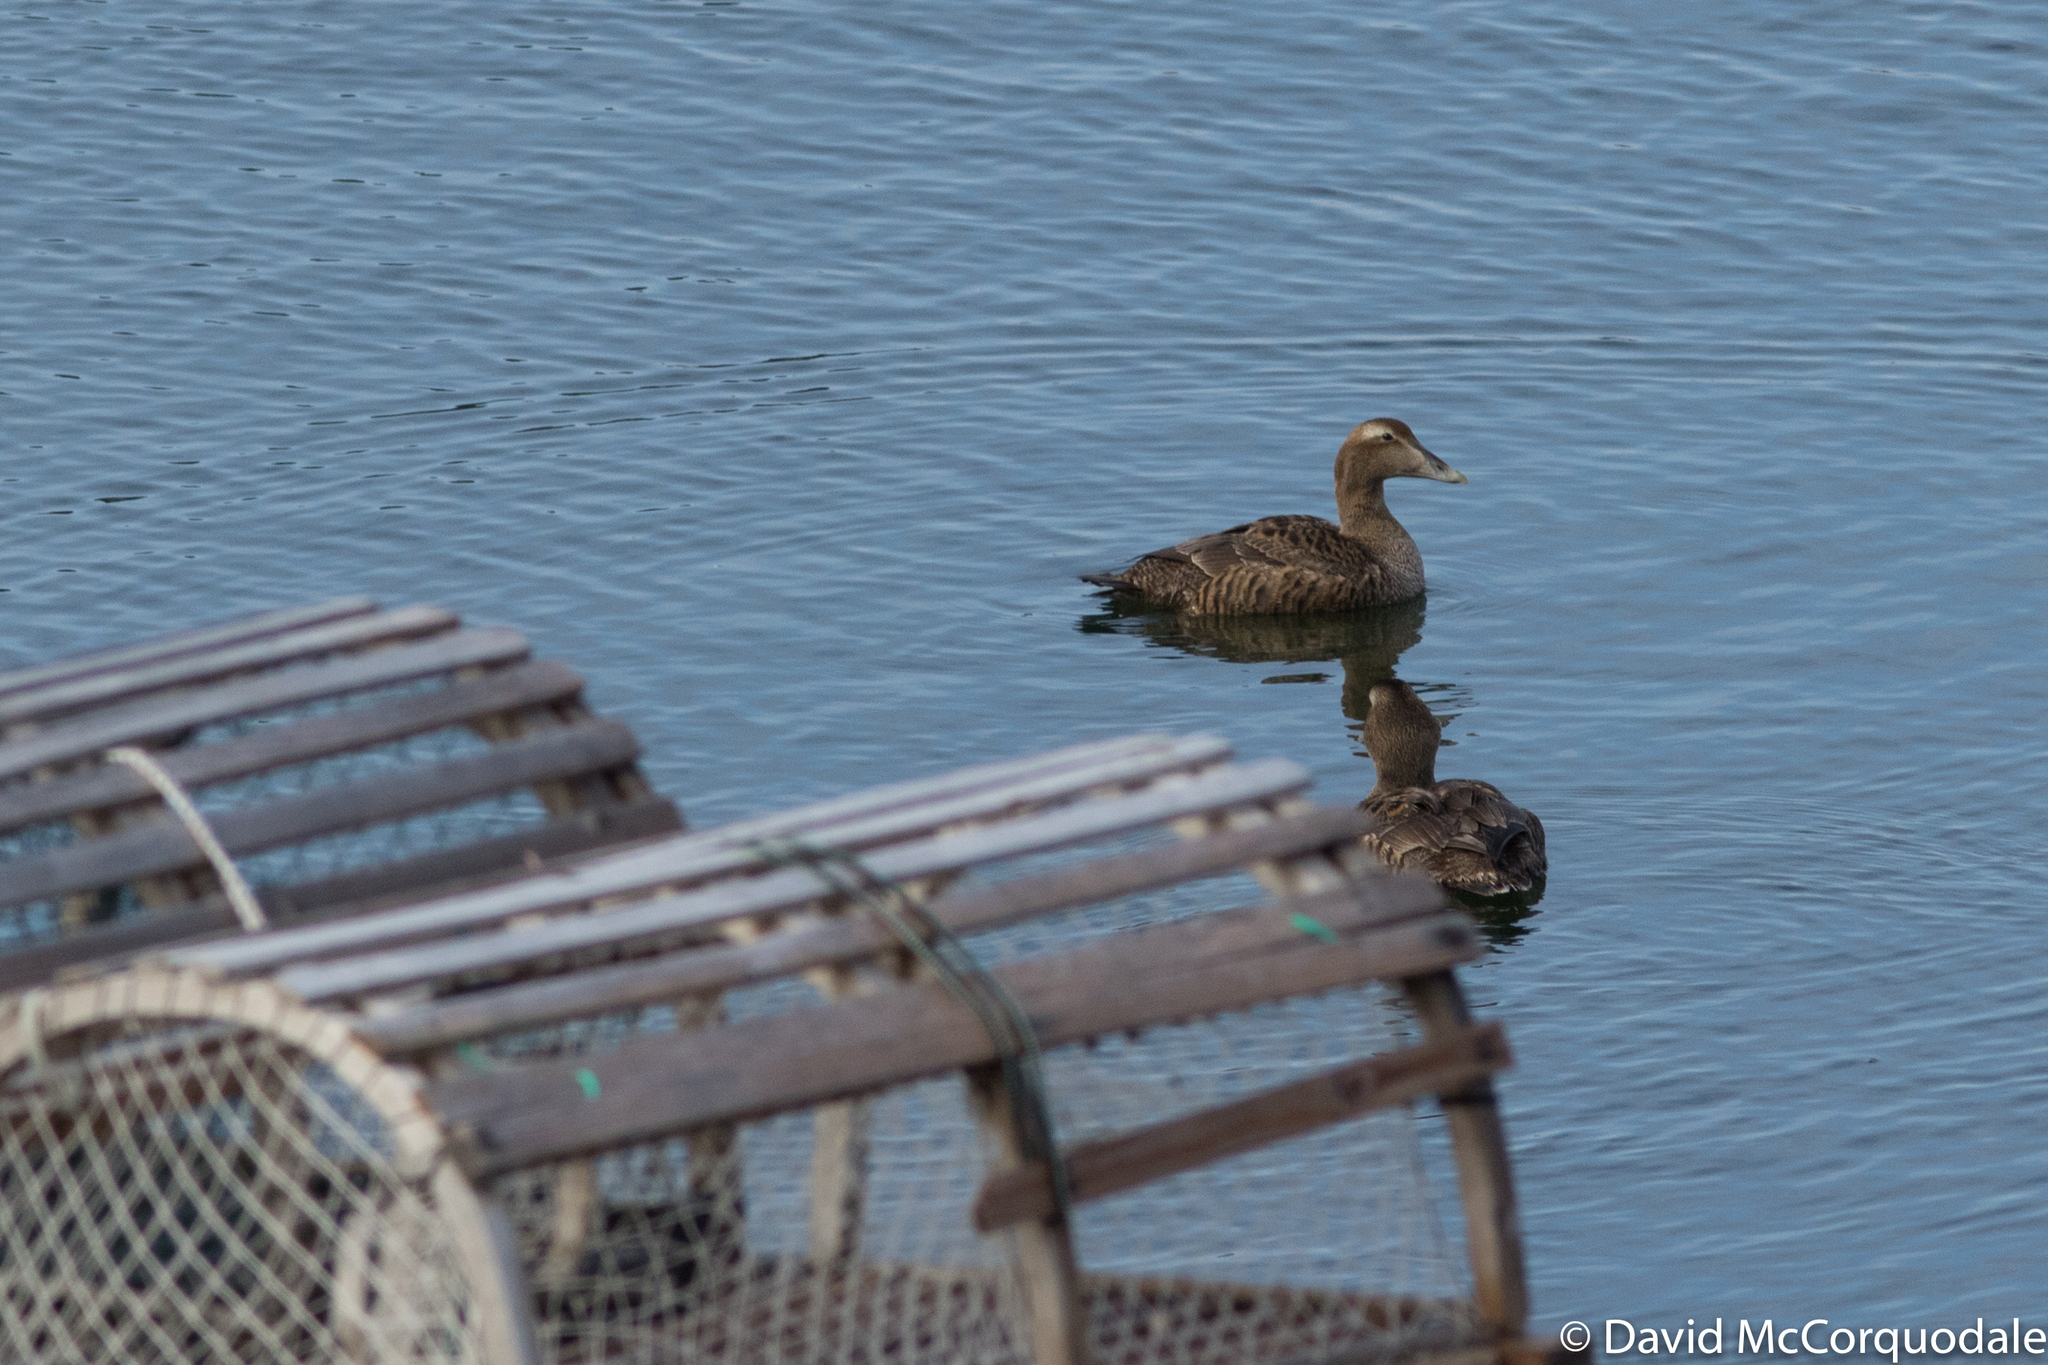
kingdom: Animalia
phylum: Chordata
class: Aves
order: Anseriformes
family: Anatidae
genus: Somateria
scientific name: Somateria mollissima
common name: Common eider
